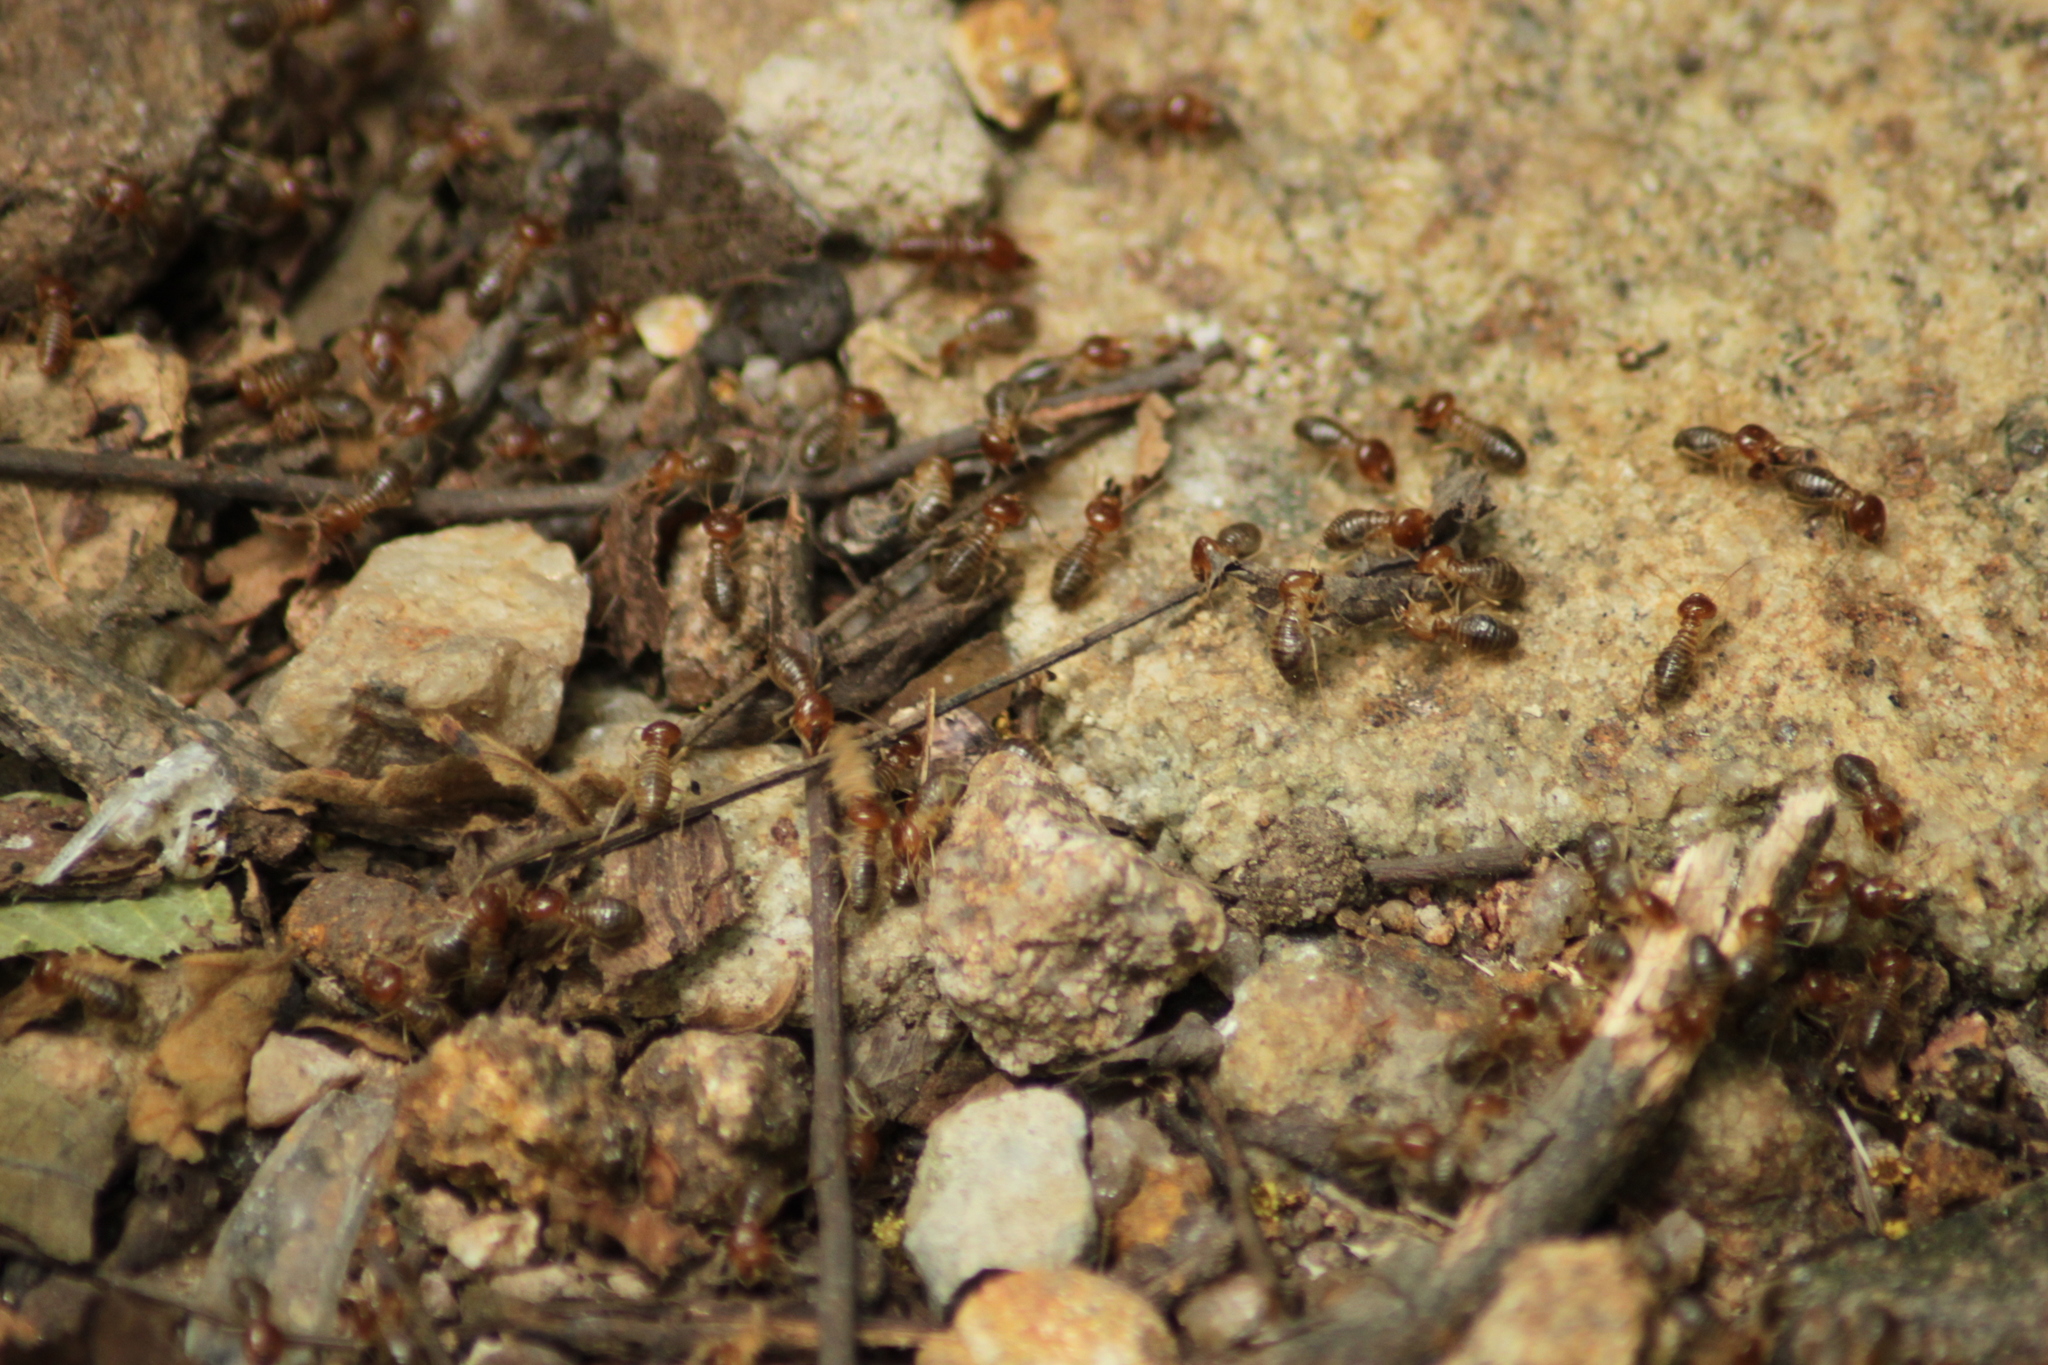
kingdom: Animalia
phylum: Arthropoda
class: Insecta
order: Blattodea
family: Termitidae
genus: Macrotermes
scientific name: Macrotermes convulsionarius
